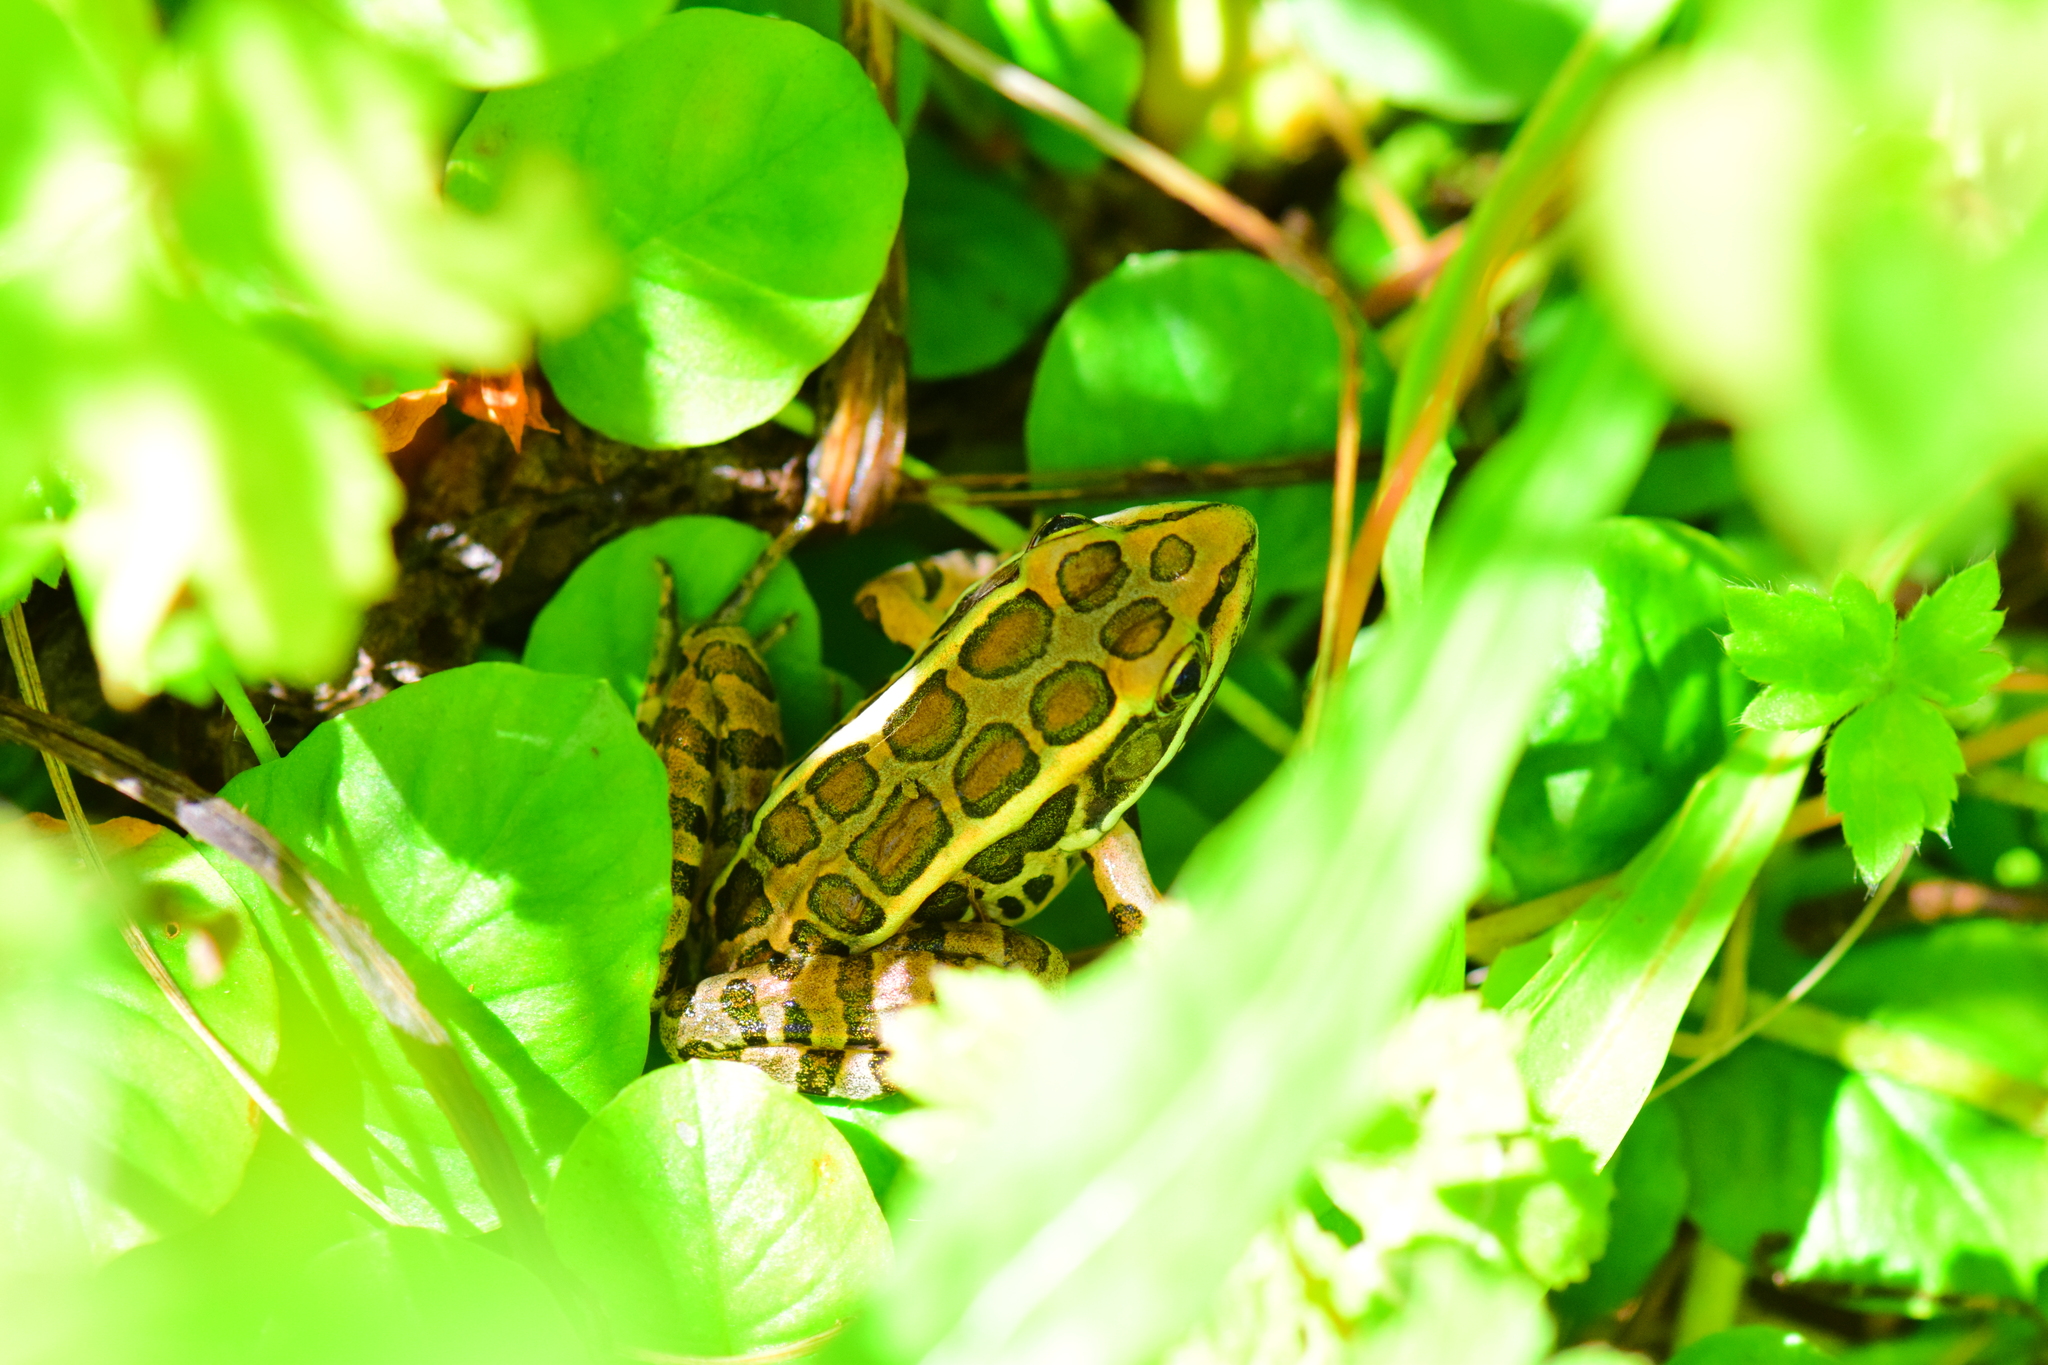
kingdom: Animalia
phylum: Chordata
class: Amphibia
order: Anura
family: Ranidae
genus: Lithobates
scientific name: Lithobates palustris
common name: Pickerel frog
